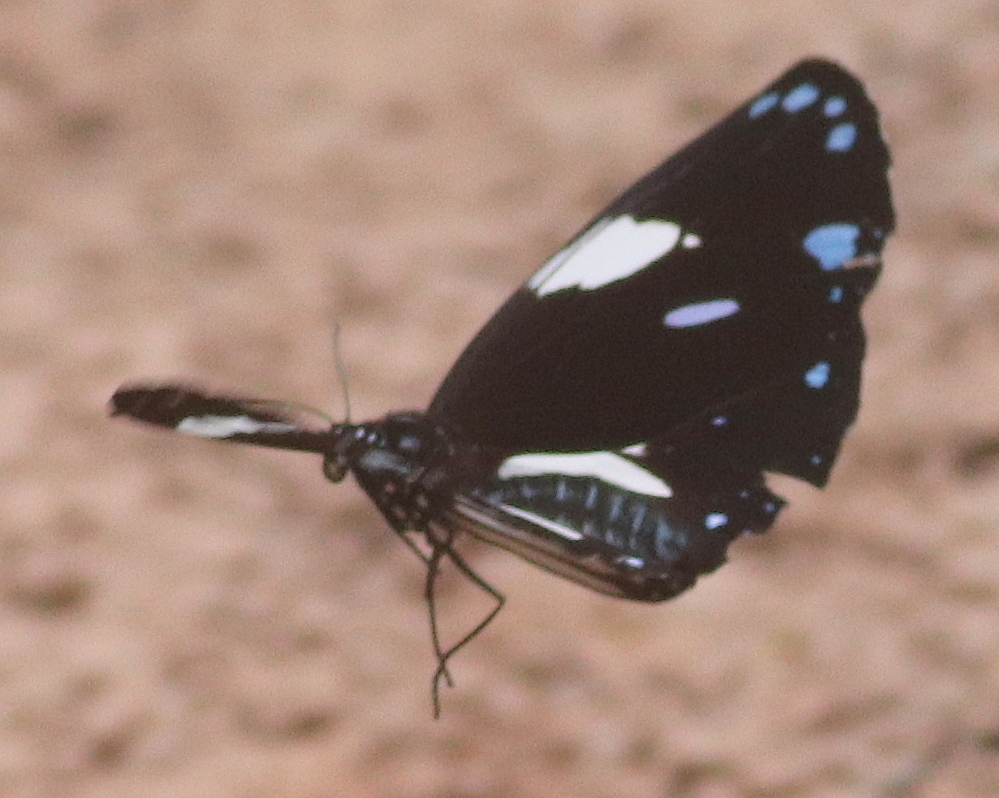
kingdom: Animalia
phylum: Arthropoda
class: Insecta
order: Lepidoptera
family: Nymphalidae
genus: Euploea
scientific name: Euploea radamanthus
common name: Magpie crow butterfly
